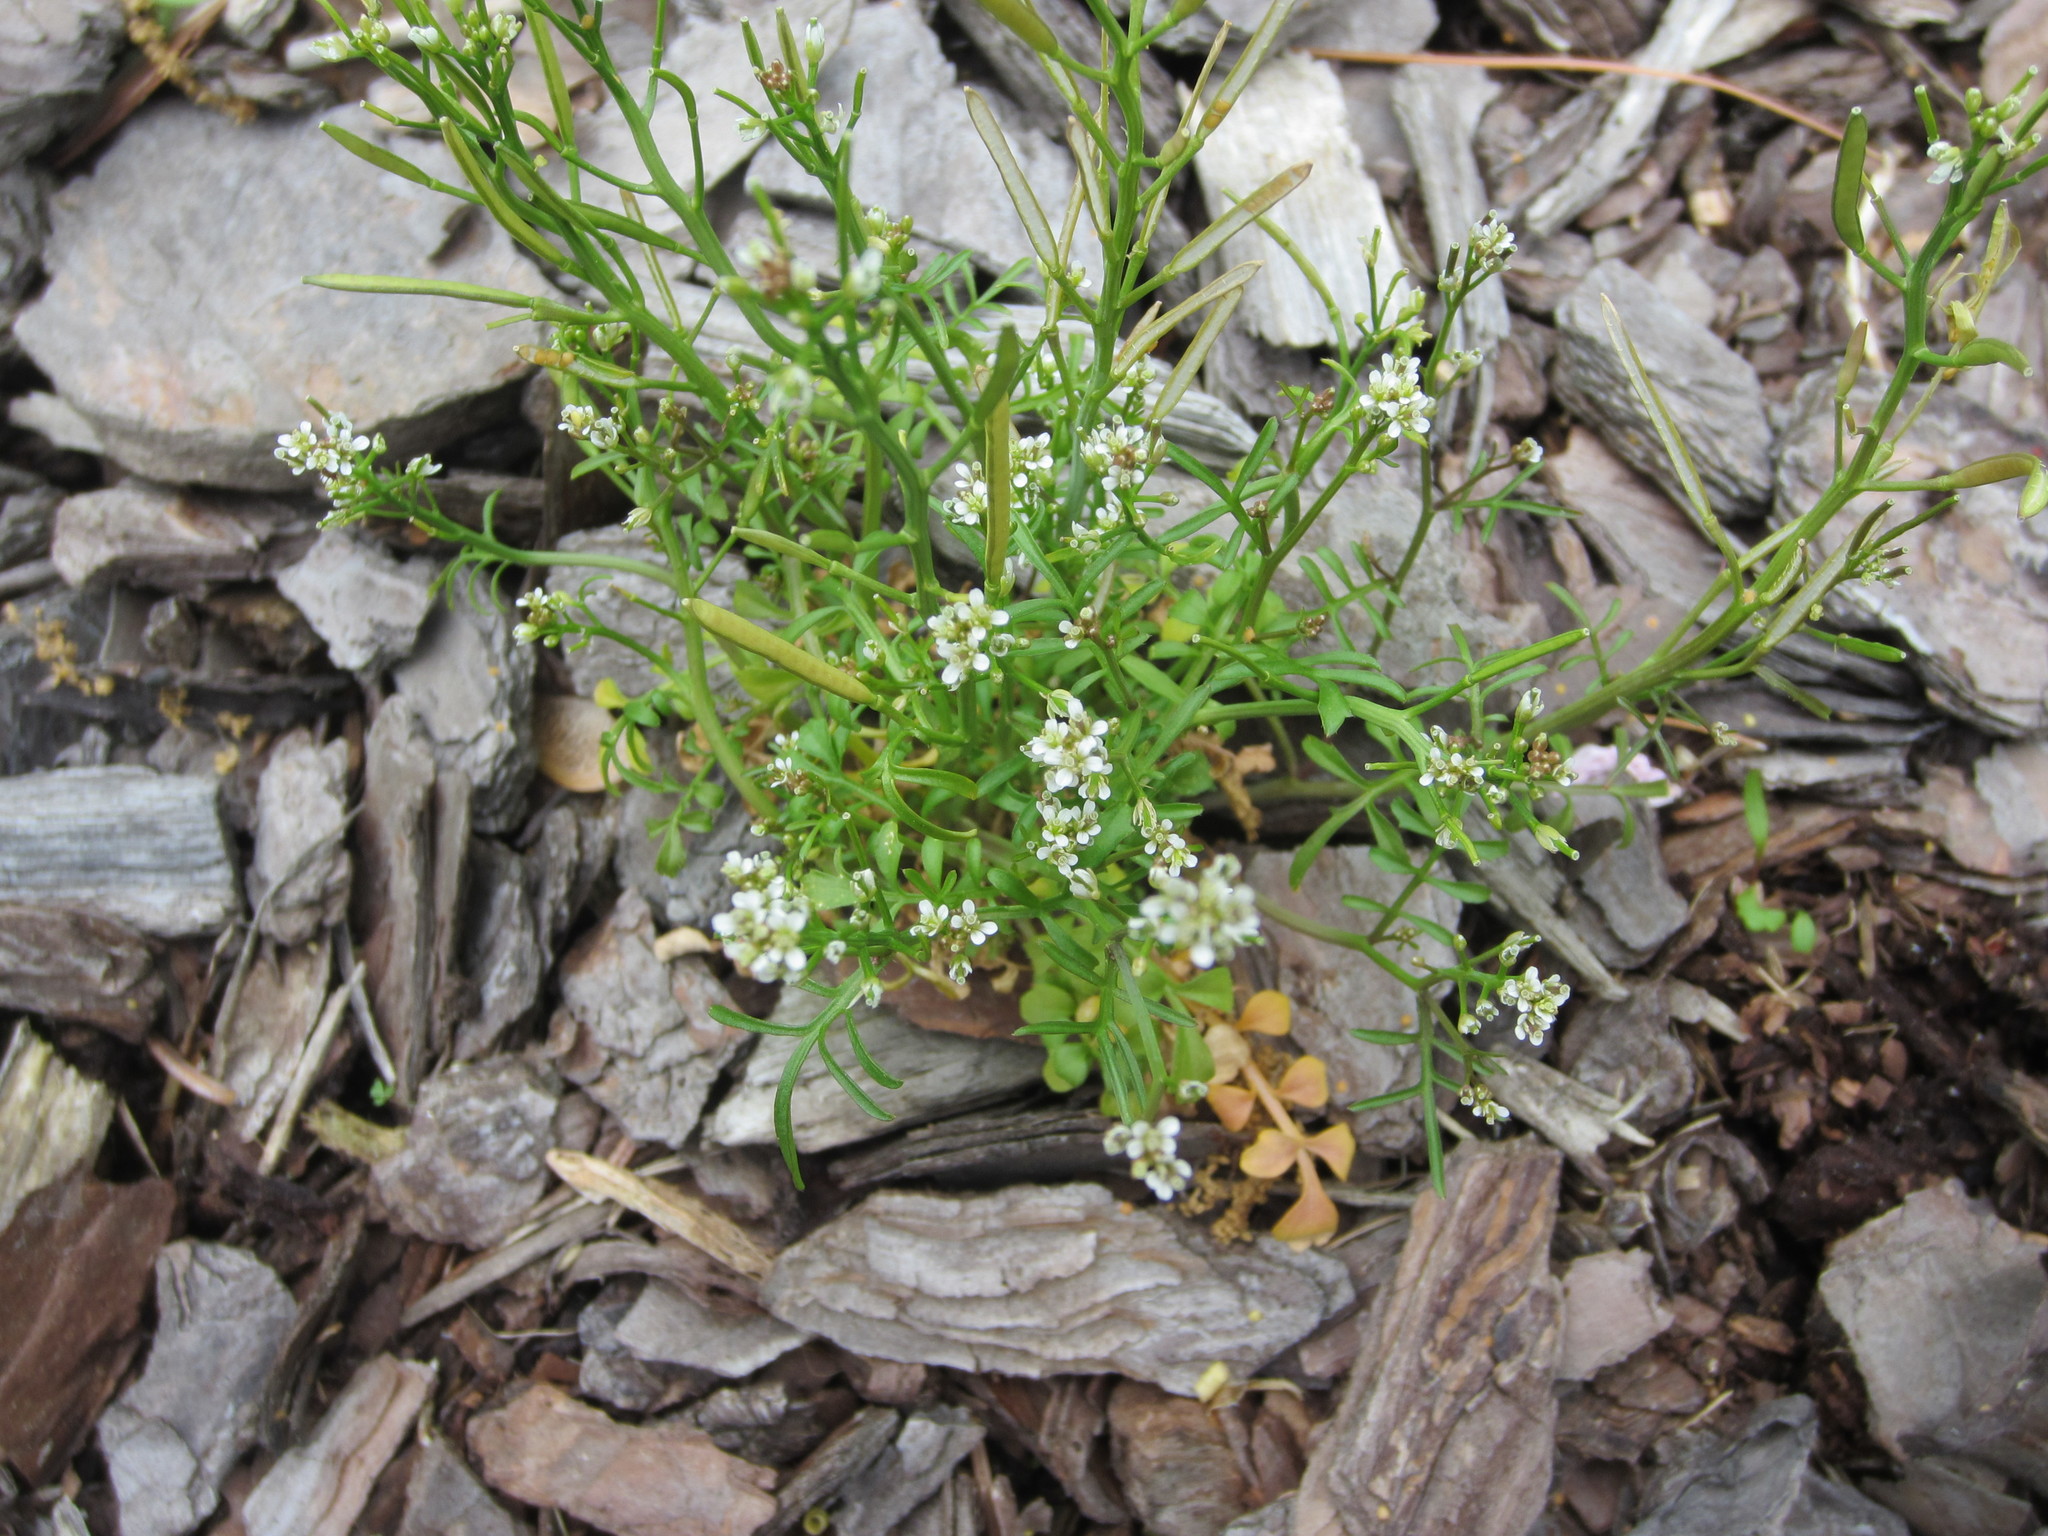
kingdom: Plantae
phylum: Tracheophyta
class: Magnoliopsida
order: Brassicales
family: Brassicaceae
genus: Cardamine
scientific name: Cardamine hirsuta
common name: Hairy bittercress
